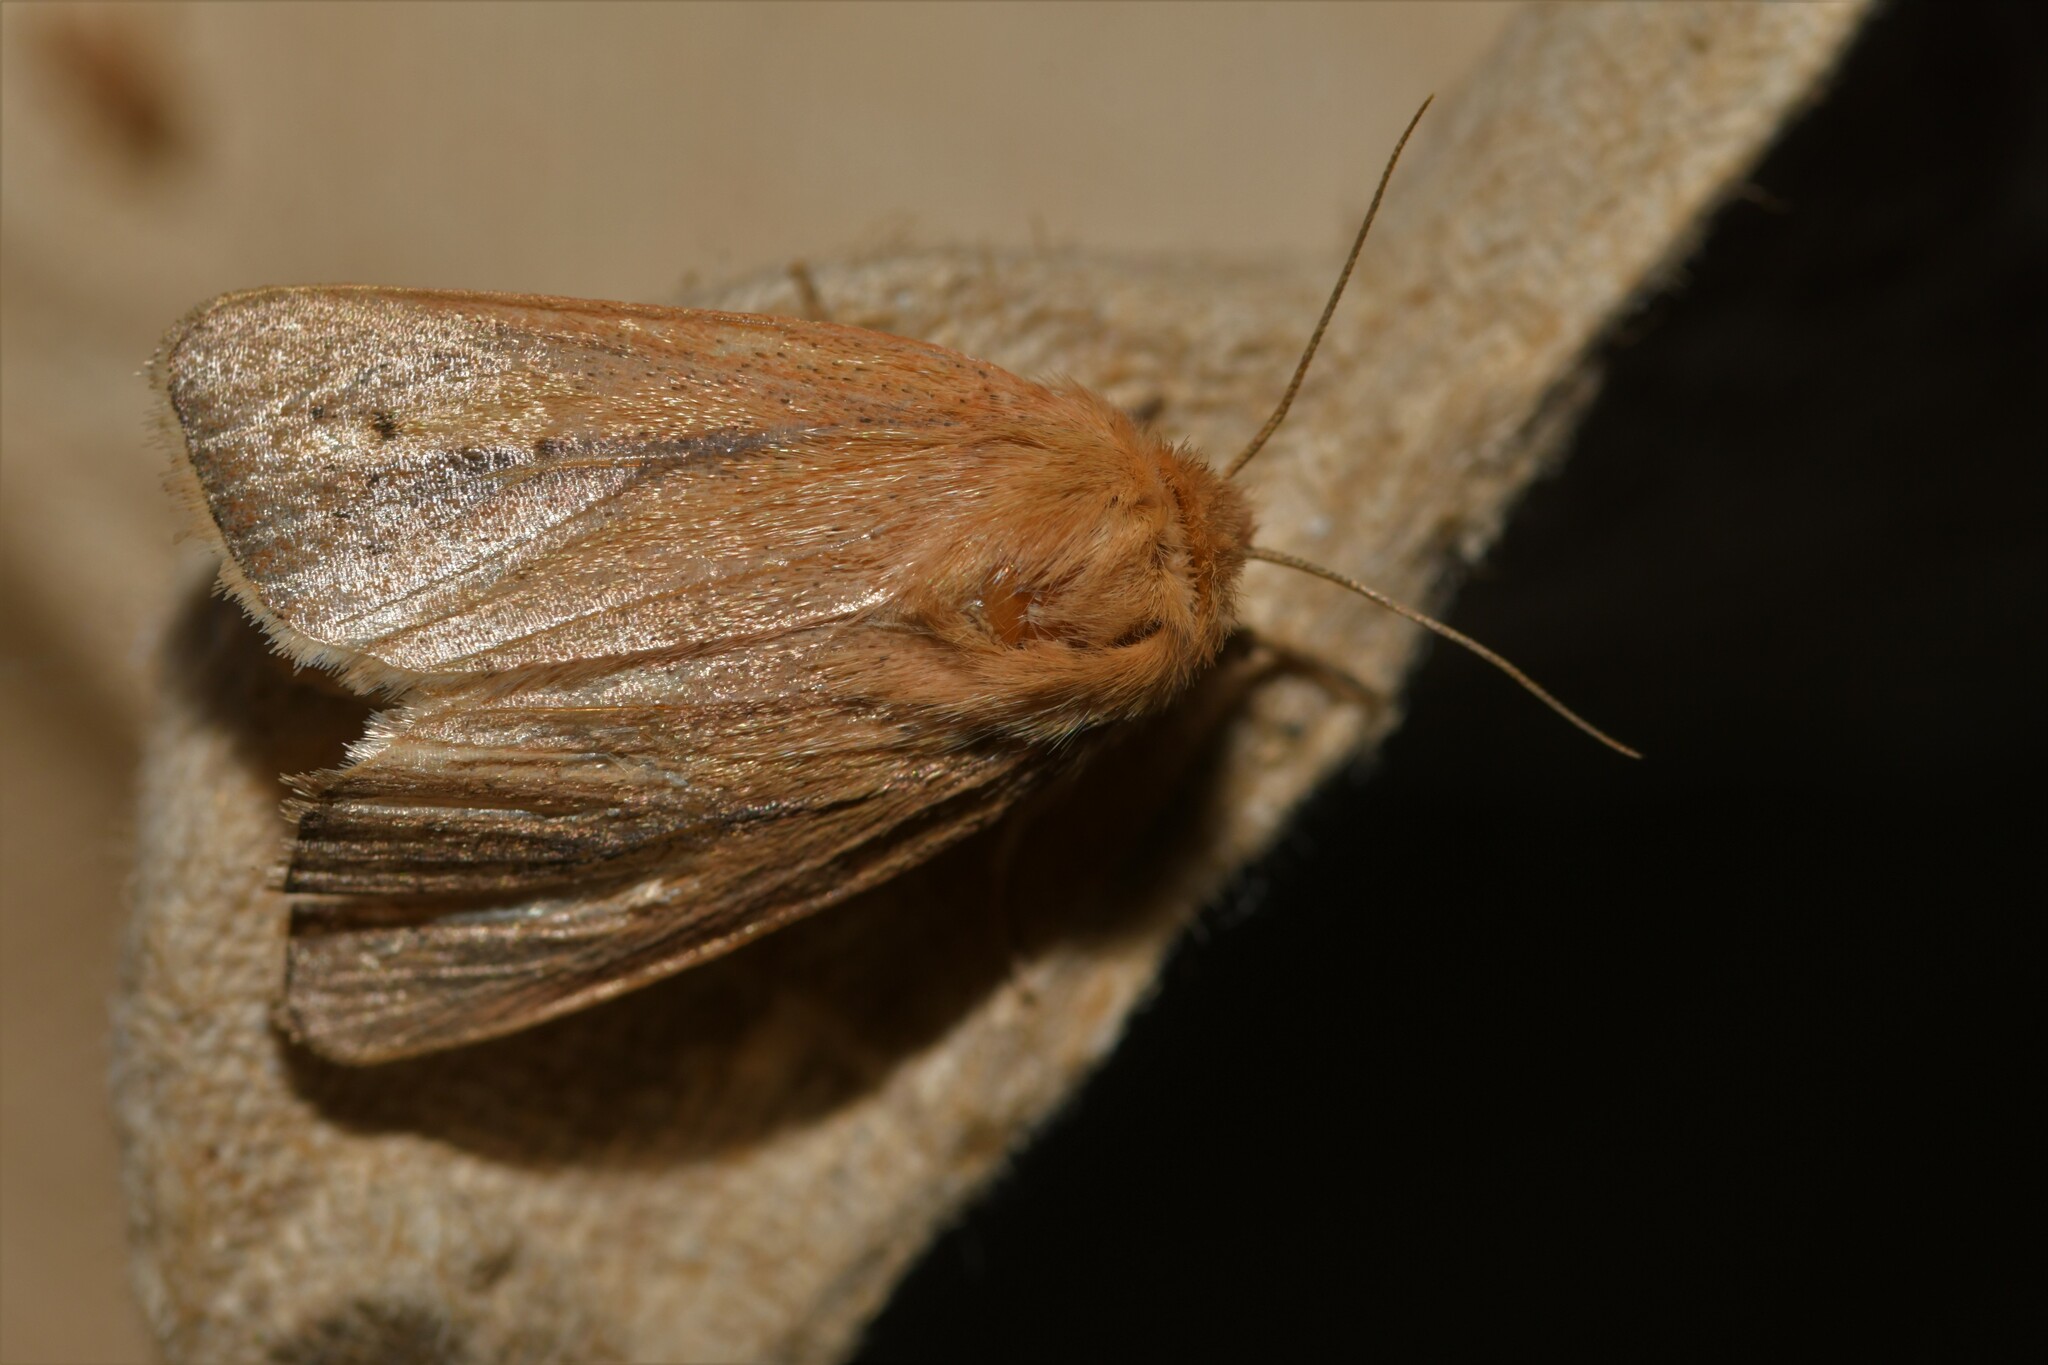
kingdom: Animalia
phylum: Arthropoda
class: Insecta
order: Lepidoptera
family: Noctuidae
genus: Sesamia
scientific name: Sesamia nonagrioides
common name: Pink stem borer
